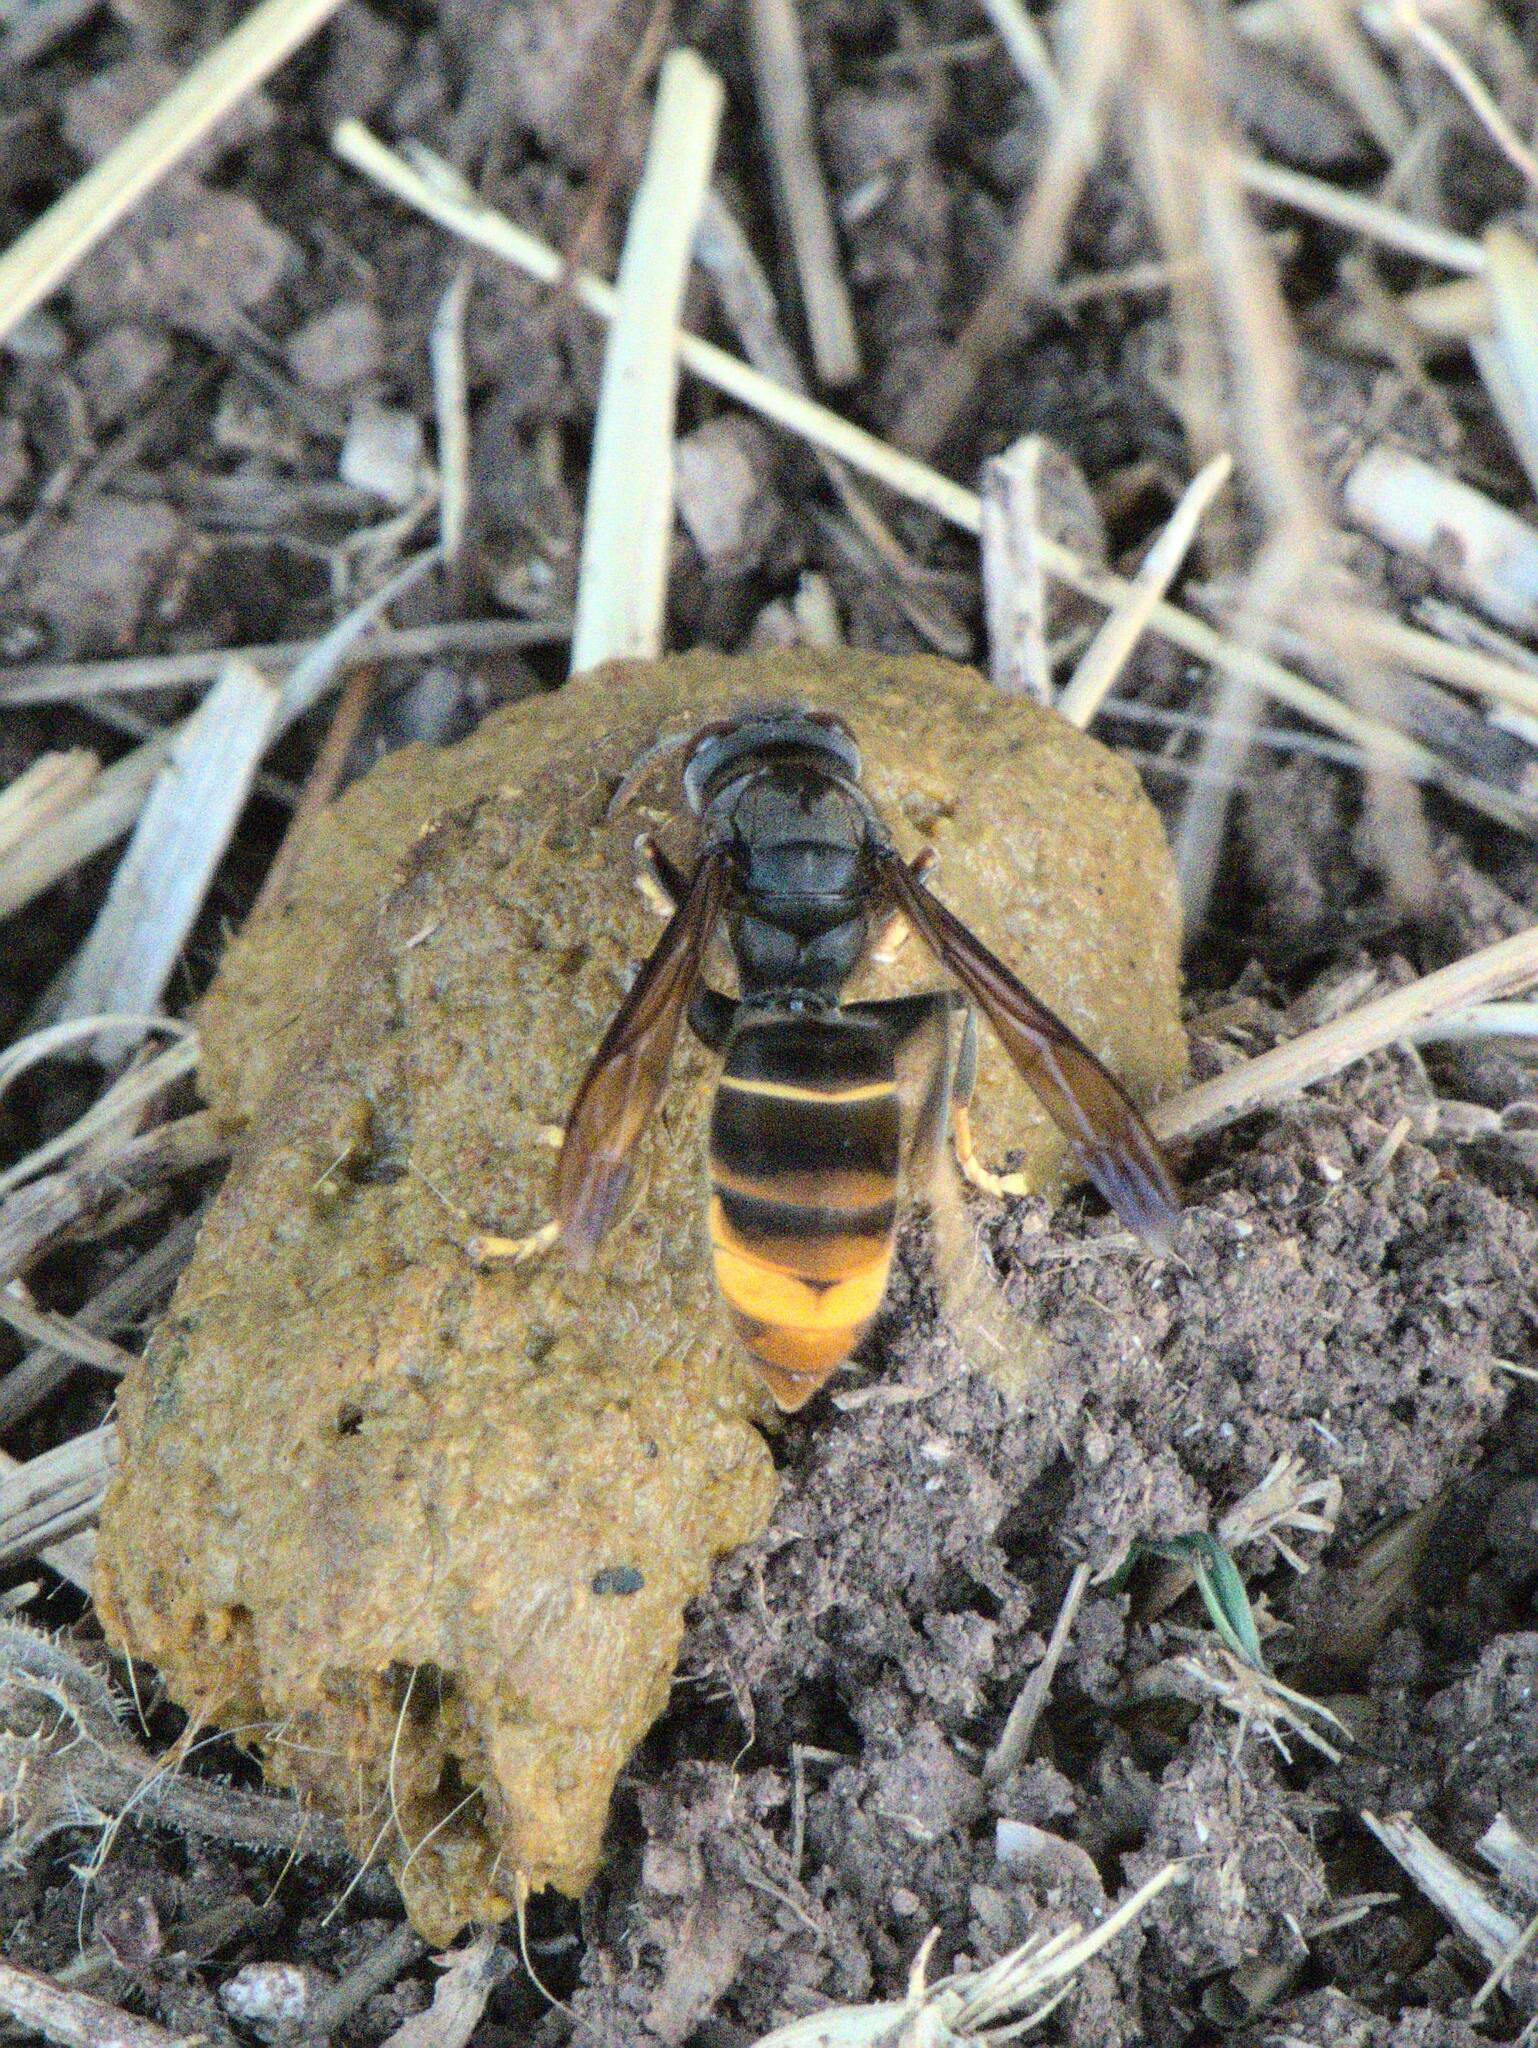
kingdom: Animalia
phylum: Arthropoda
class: Insecta
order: Hymenoptera
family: Vespidae
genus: Vespa
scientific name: Vespa velutina
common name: Asian hornet
